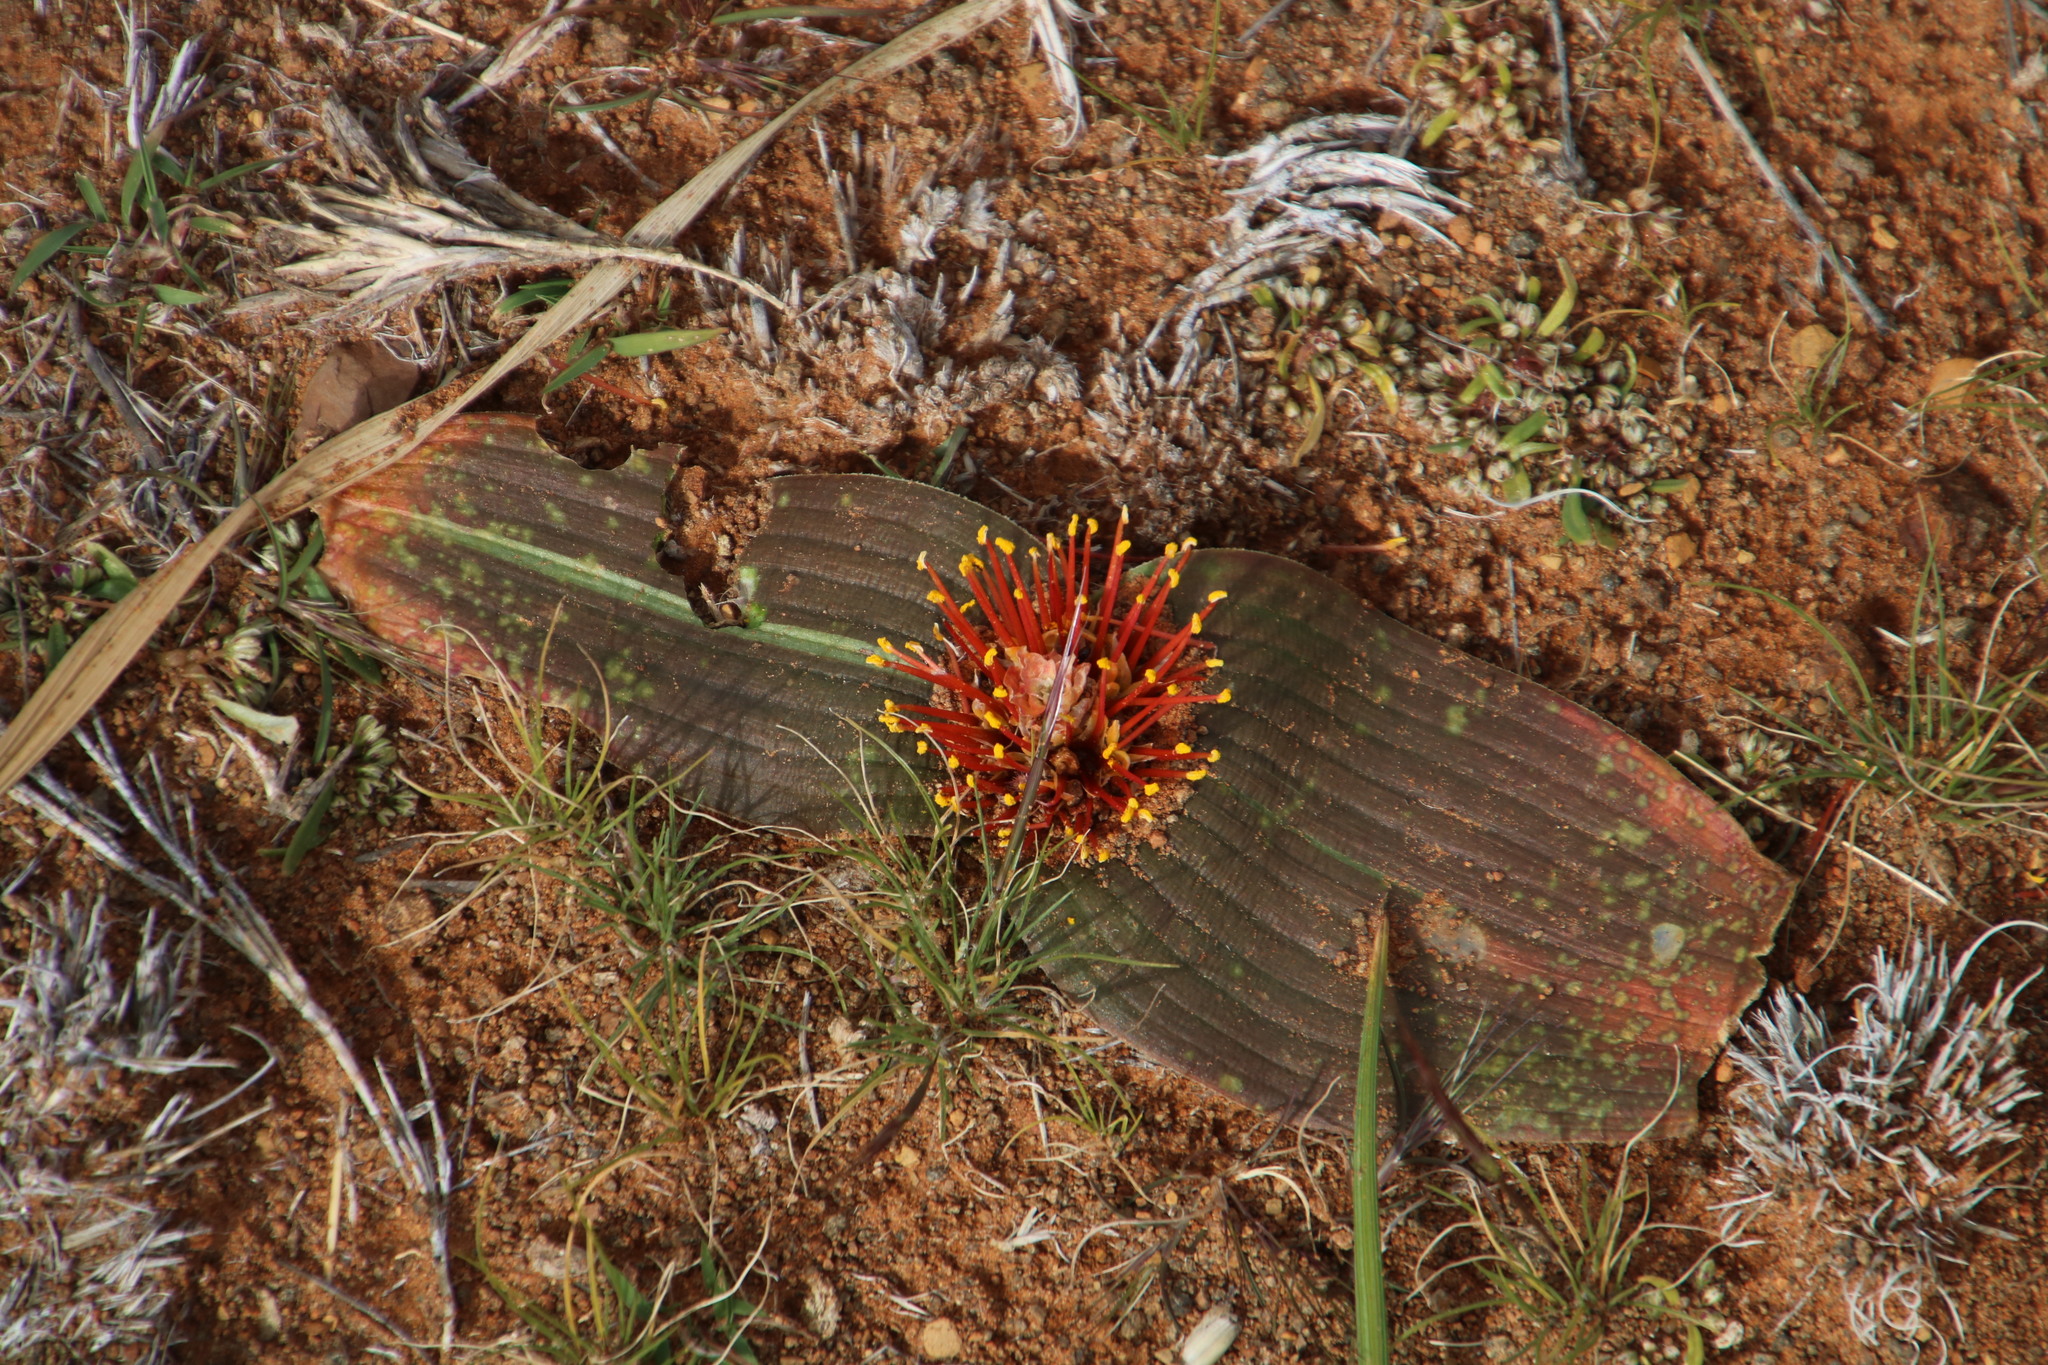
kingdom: Plantae
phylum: Tracheophyta
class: Liliopsida
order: Asparagales
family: Asparagaceae
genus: Daubenya
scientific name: Daubenya marginata
